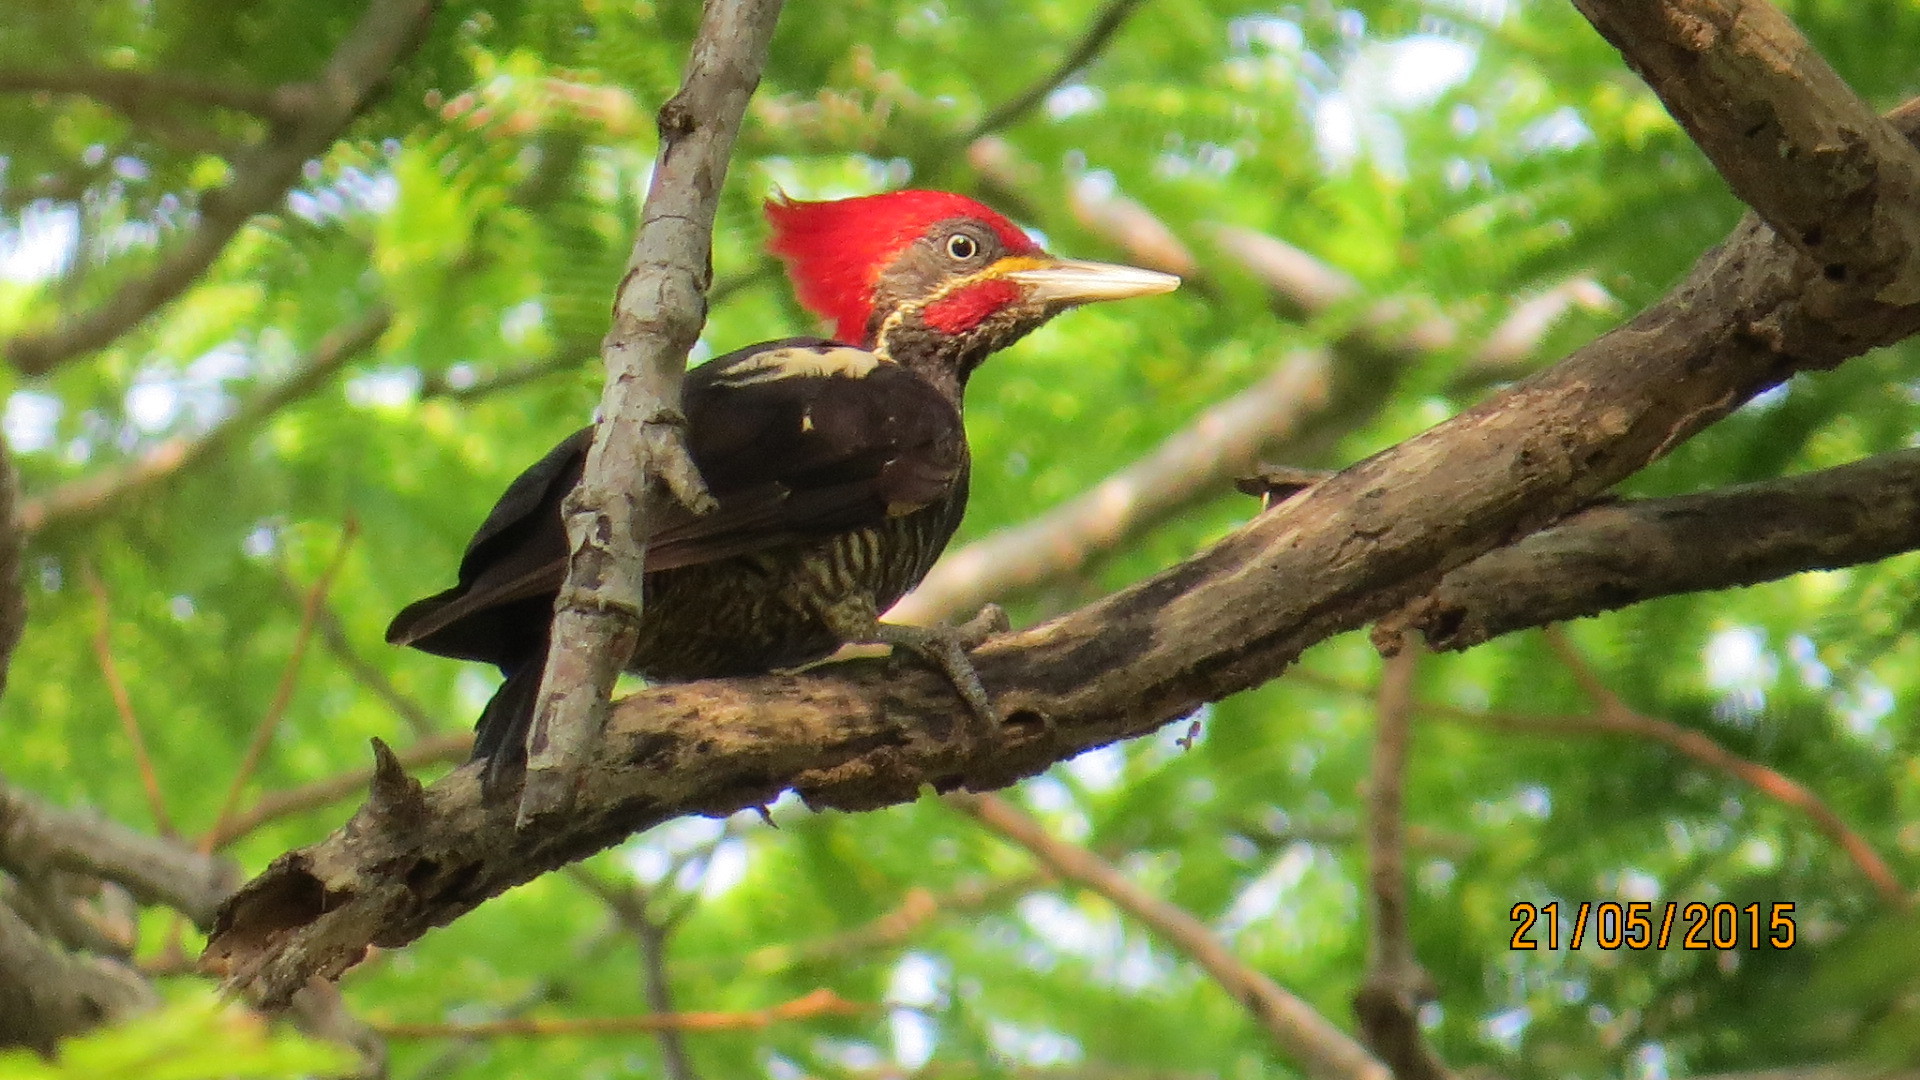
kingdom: Animalia
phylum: Chordata
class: Aves
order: Piciformes
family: Picidae
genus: Dryocopus
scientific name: Dryocopus lineatus
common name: Lineated woodpecker
